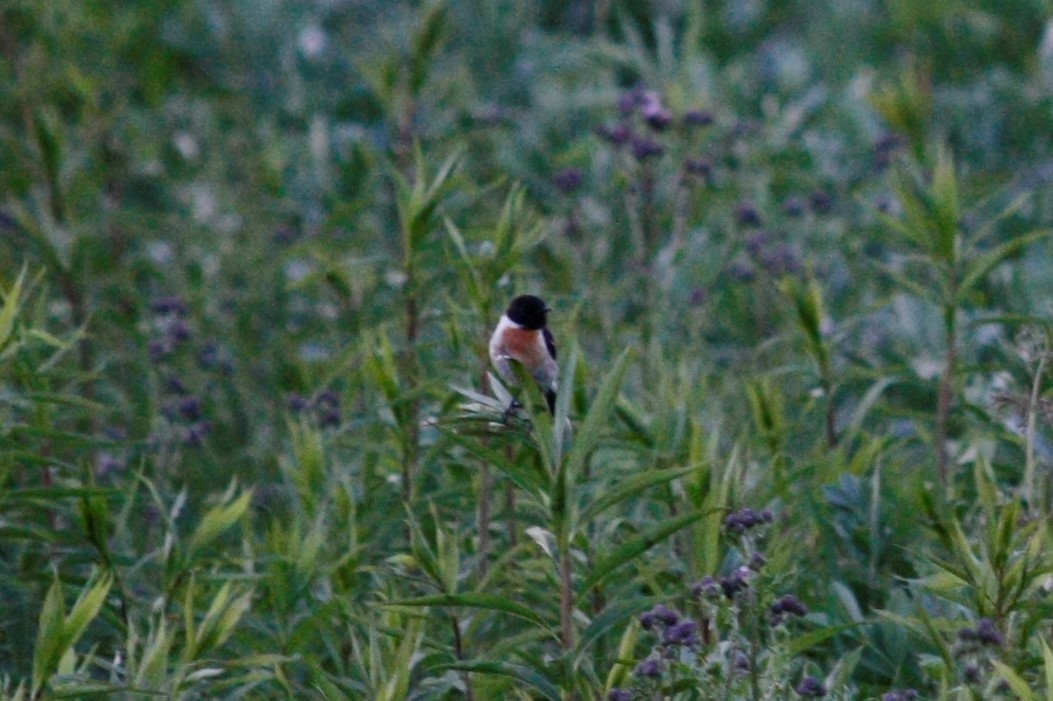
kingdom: Animalia
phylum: Chordata
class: Aves
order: Passeriformes
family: Muscicapidae
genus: Saxicola
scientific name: Saxicola rubicola
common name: European stonechat
